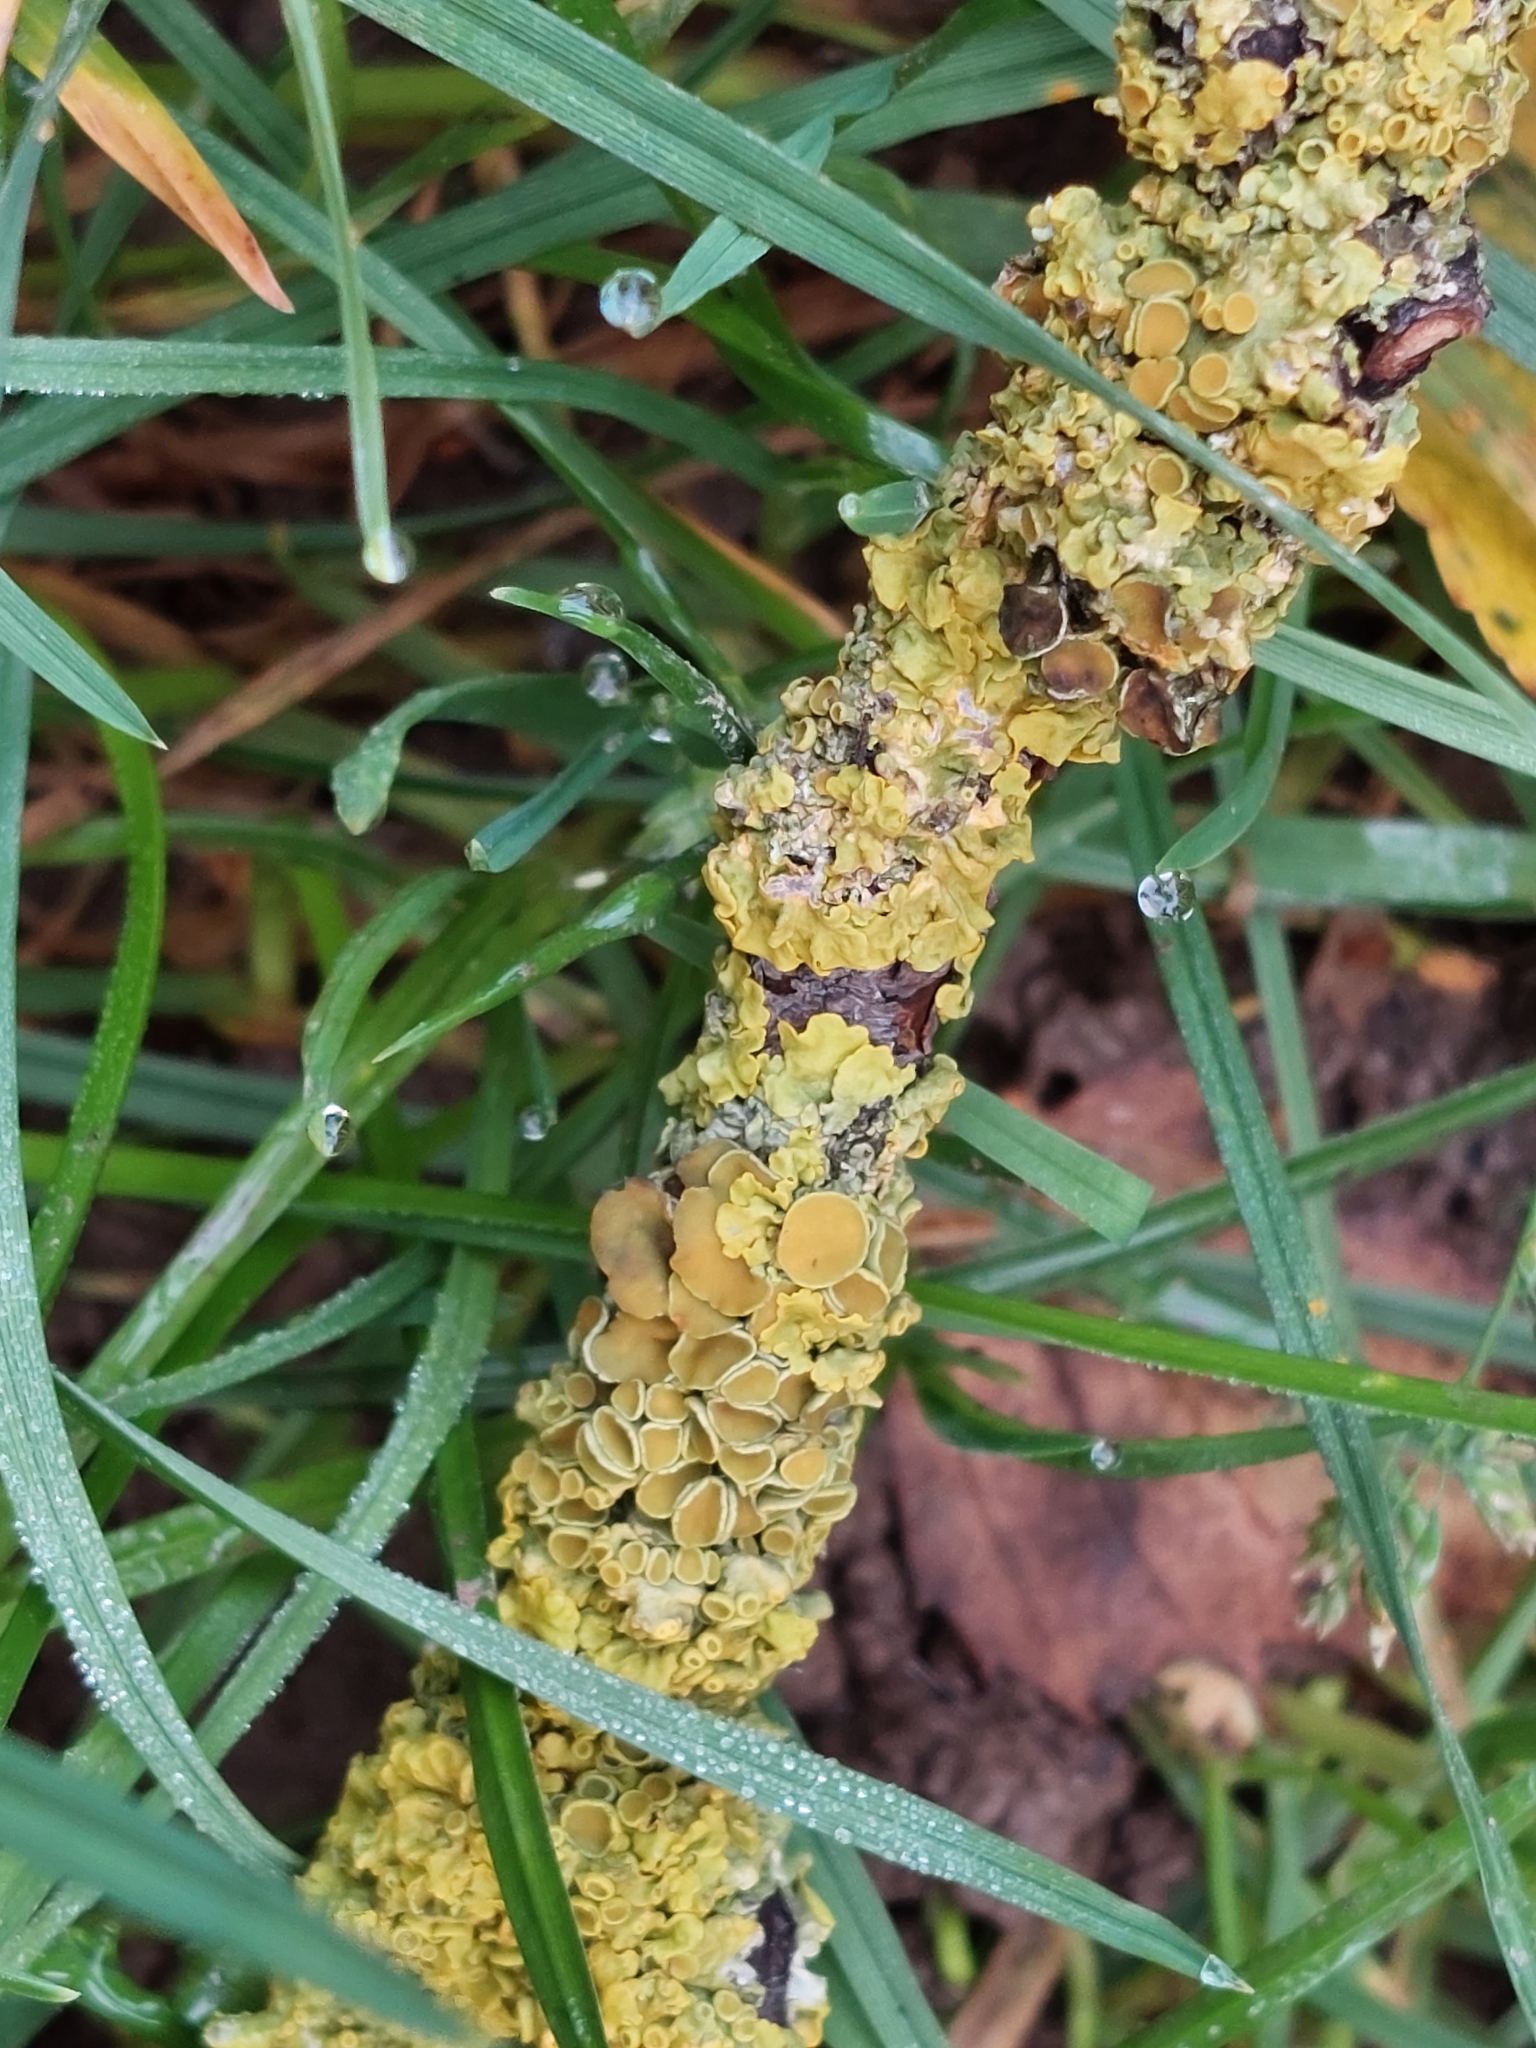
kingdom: Fungi
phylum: Ascomycota
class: Lecanoromycetes
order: Teloschistales
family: Teloschistaceae
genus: Xanthoria
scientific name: Xanthoria parietina
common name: Common orange lichen
